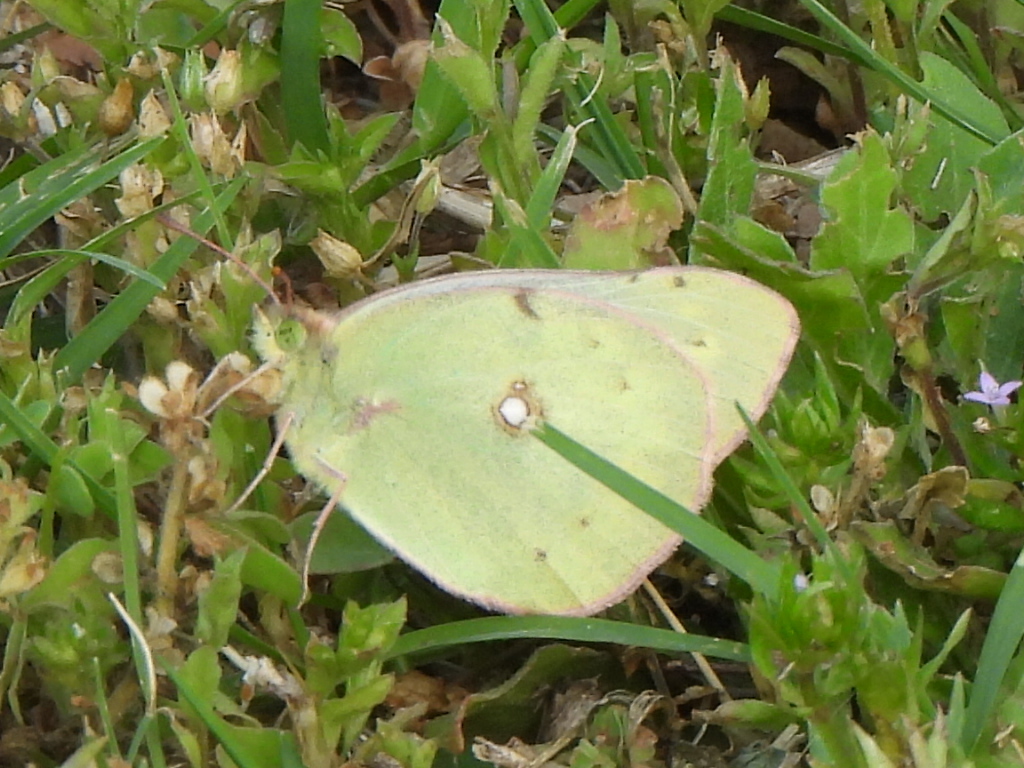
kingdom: Animalia
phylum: Arthropoda
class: Insecta
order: Lepidoptera
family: Pieridae
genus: Colias
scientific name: Colias eurytheme
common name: Alfalfa butterfly
